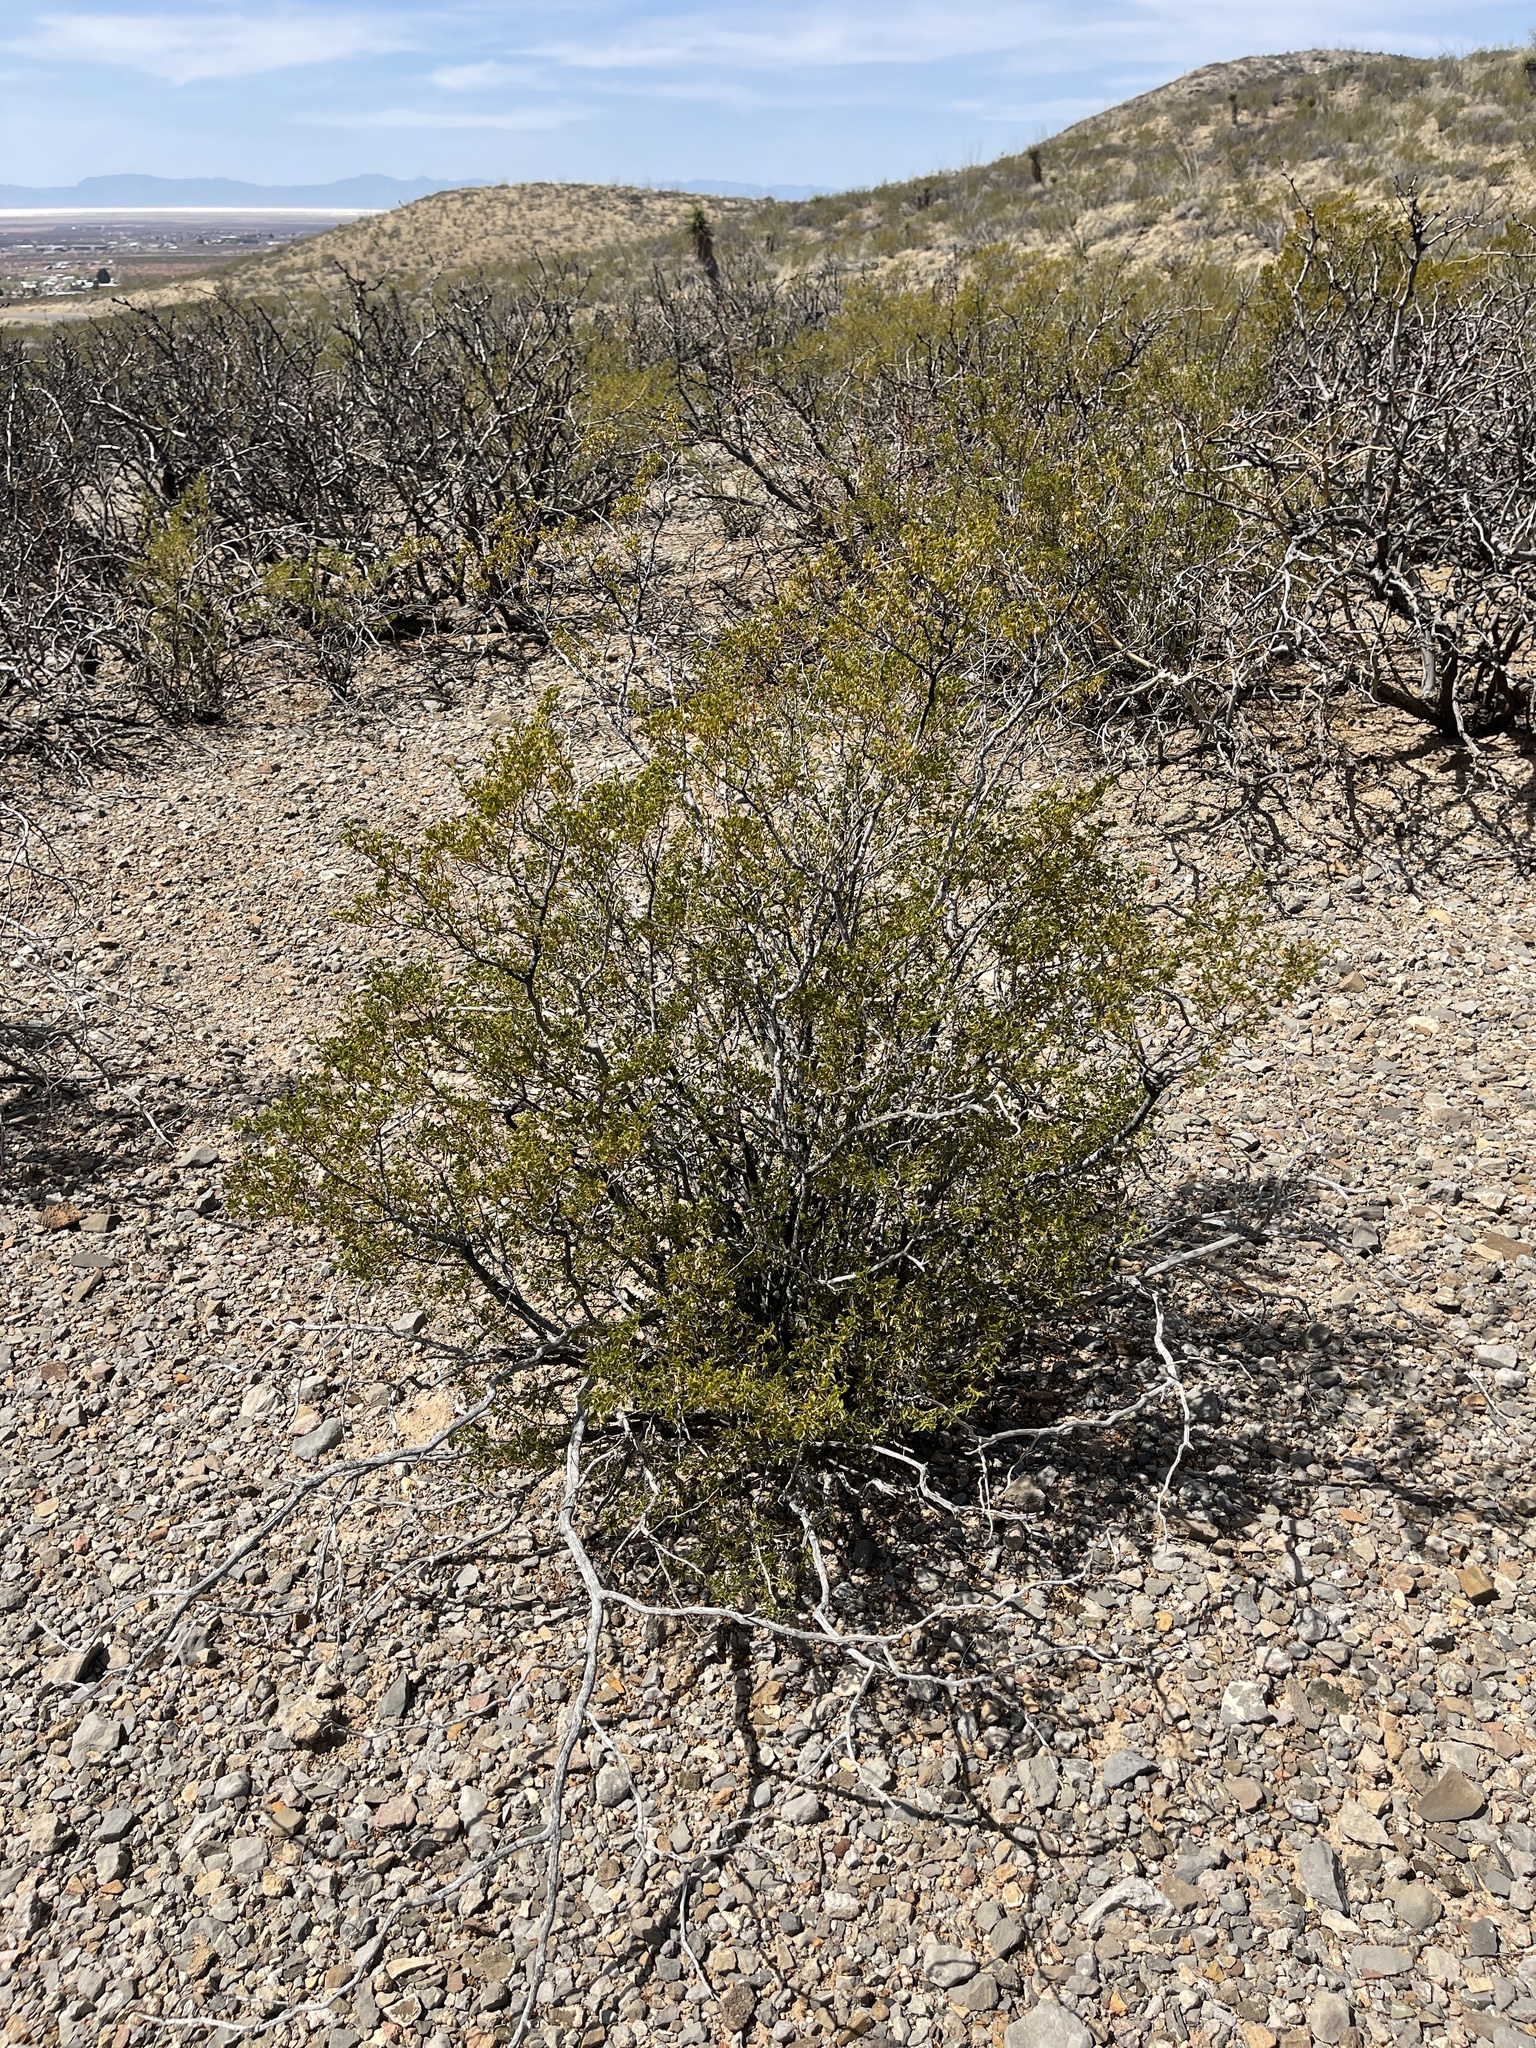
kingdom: Plantae
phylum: Tracheophyta
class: Magnoliopsida
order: Zygophyllales
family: Zygophyllaceae
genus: Larrea
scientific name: Larrea tridentata
